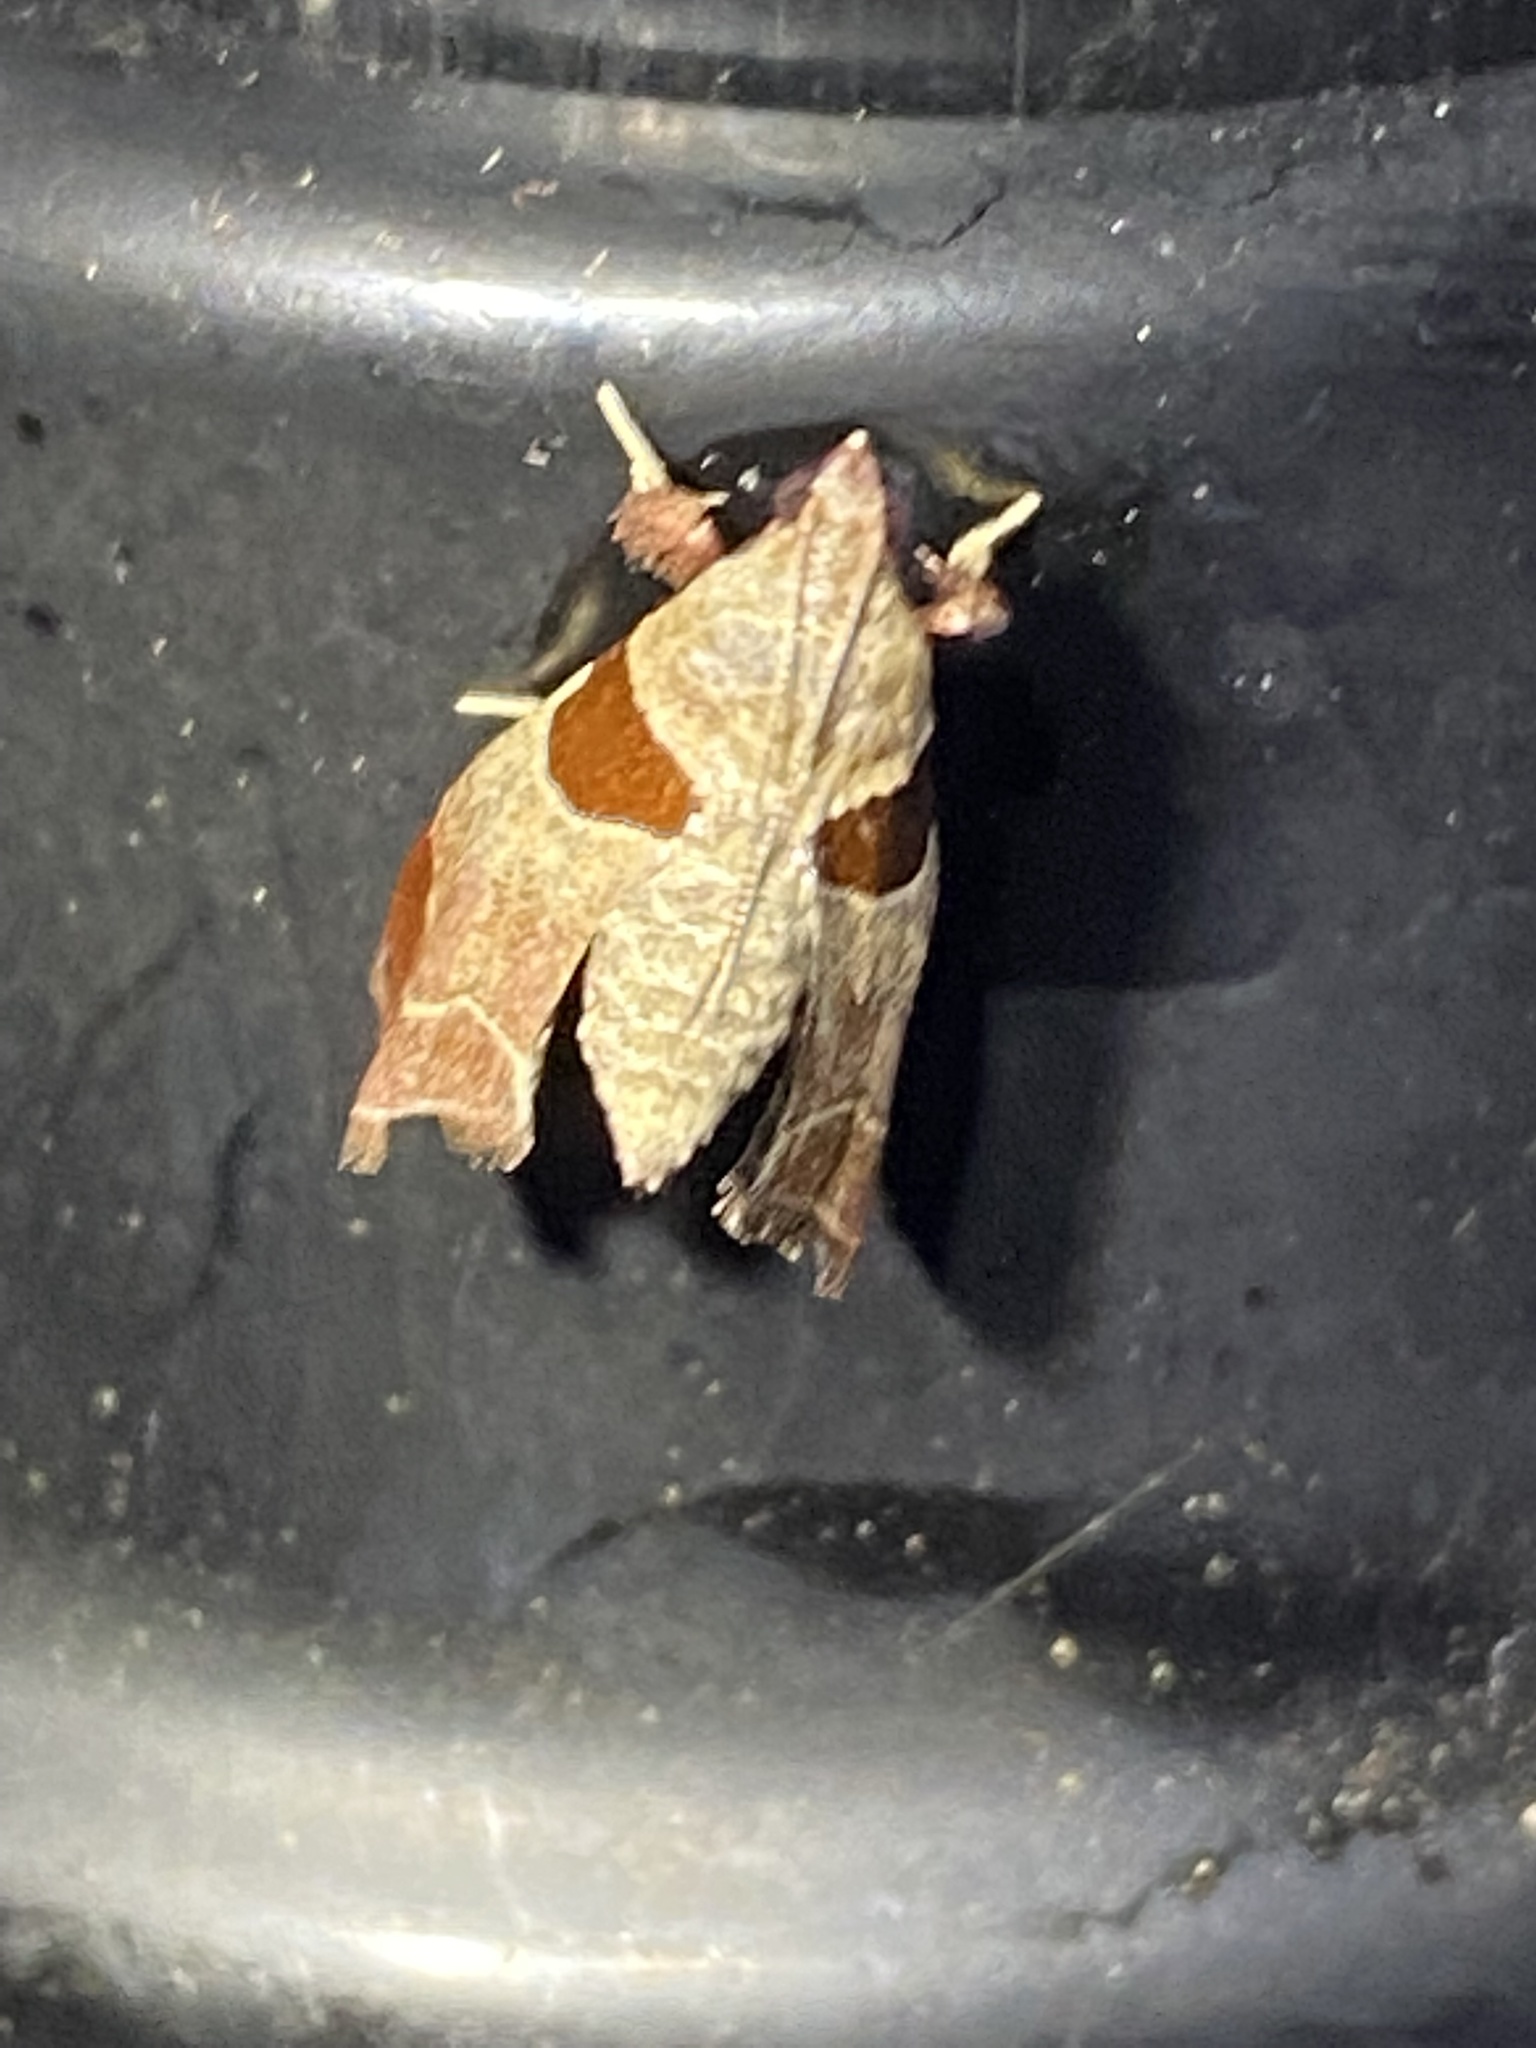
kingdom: Animalia
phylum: Arthropoda
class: Insecta
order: Lepidoptera
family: Pyralidae
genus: Tosale
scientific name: Tosale oviplagalis
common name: Dimorphic tosale moth
